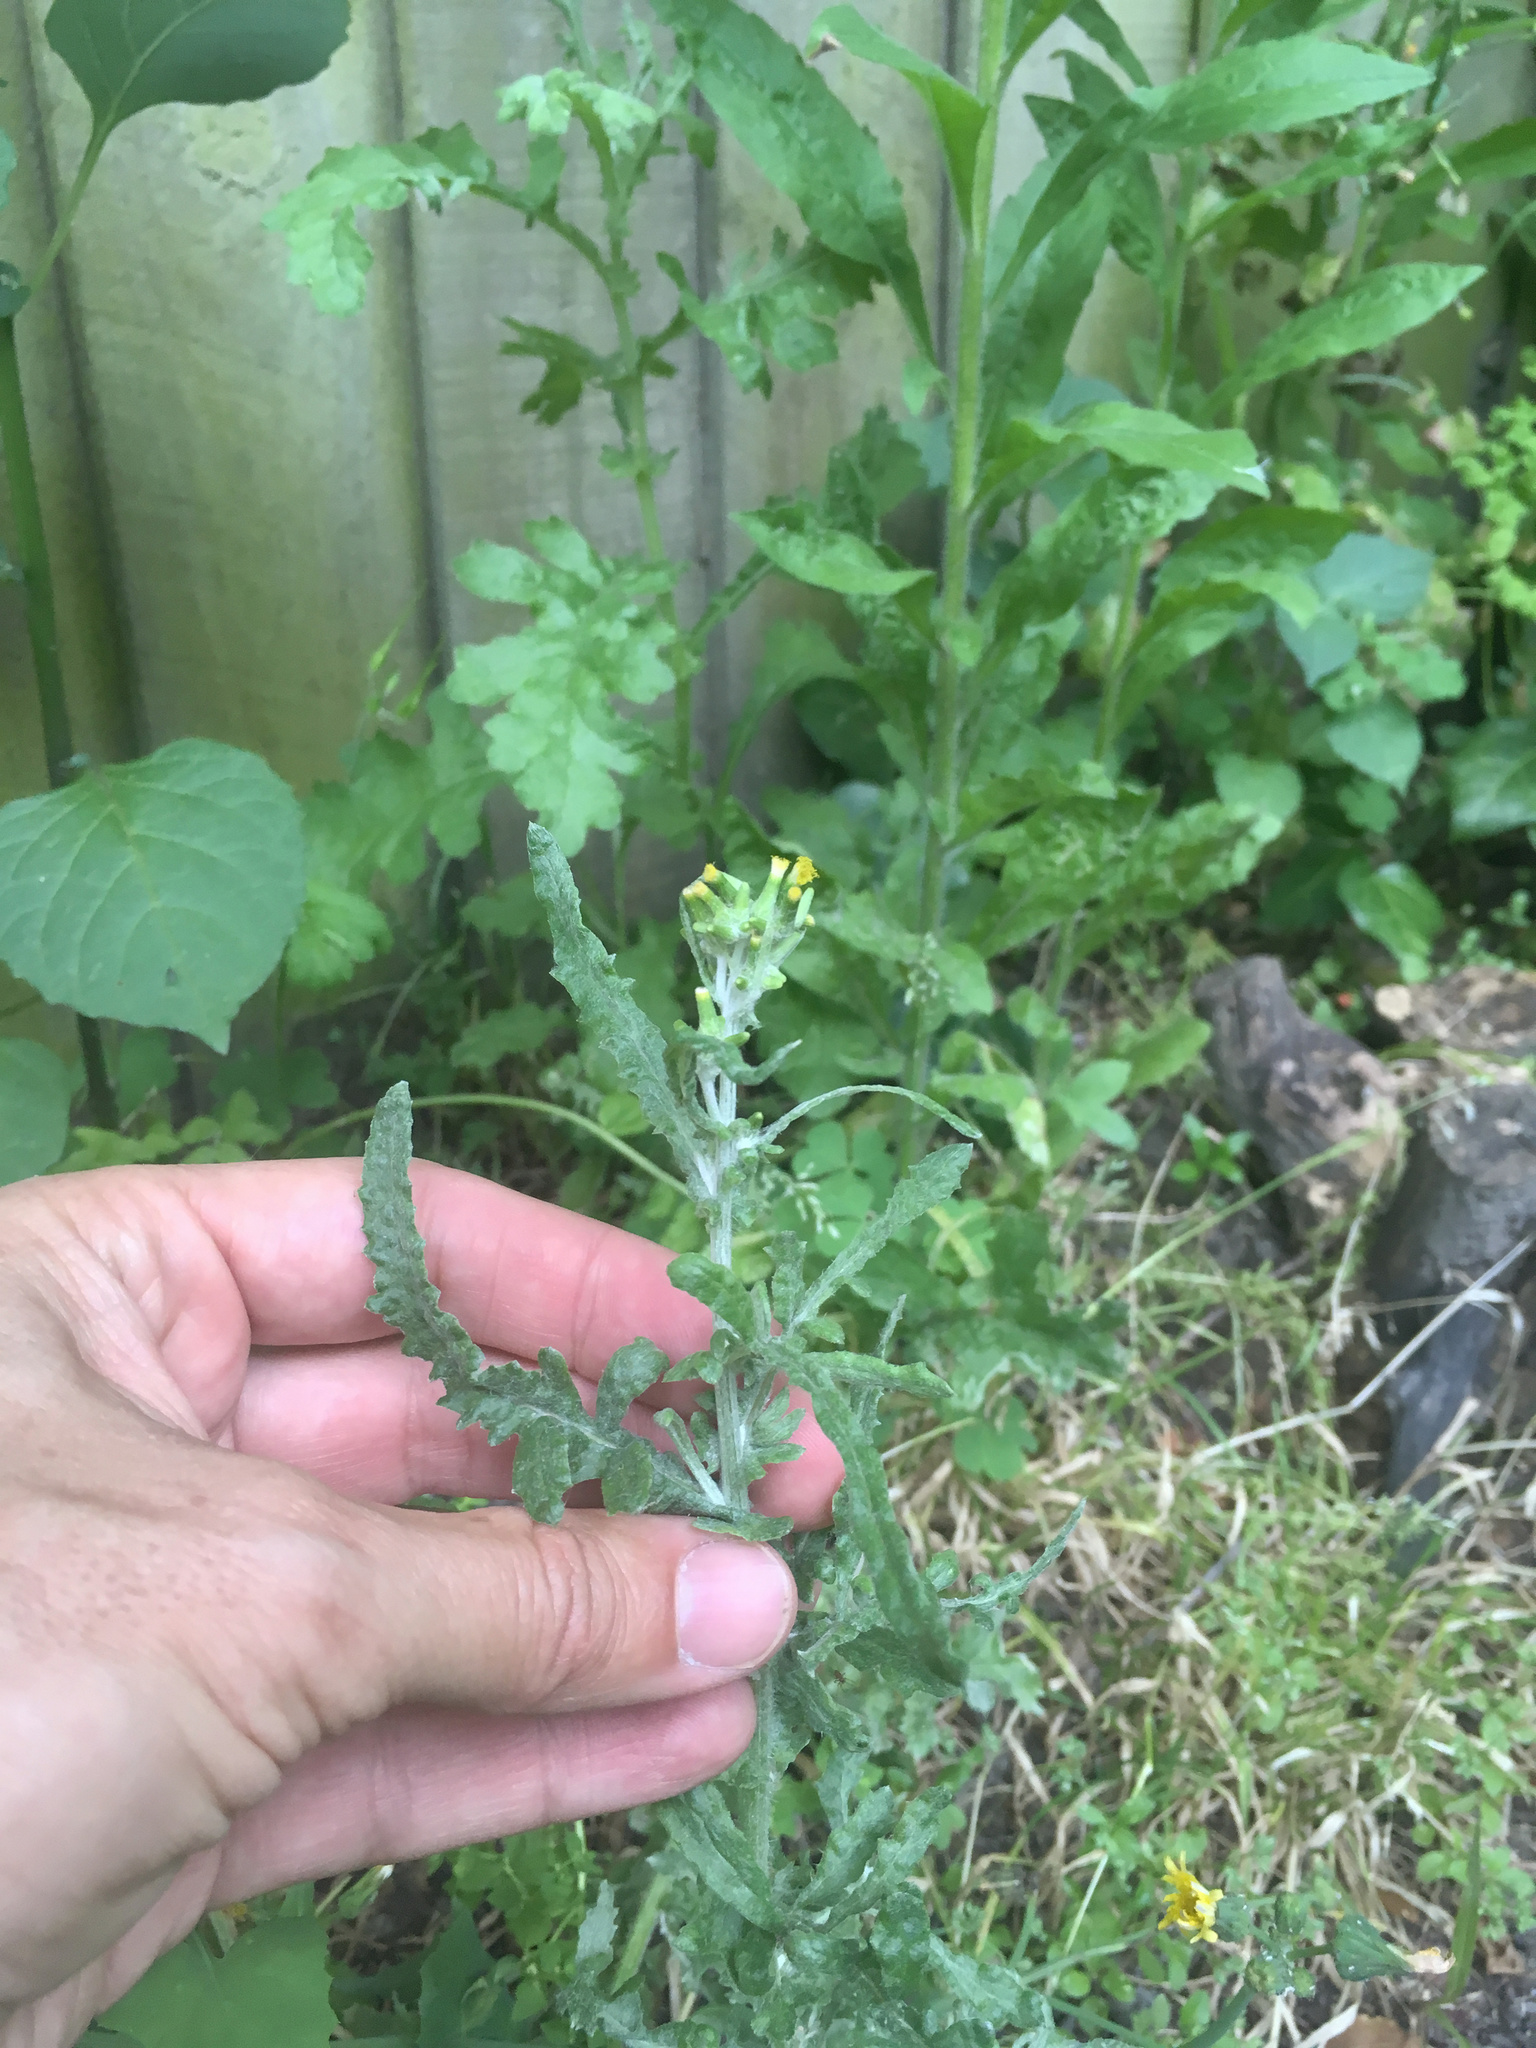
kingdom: Plantae
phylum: Tracheophyta
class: Magnoliopsida
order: Asterales
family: Asteraceae
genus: Senecio
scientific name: Senecio glomeratus
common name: Cutleaf burnweed
